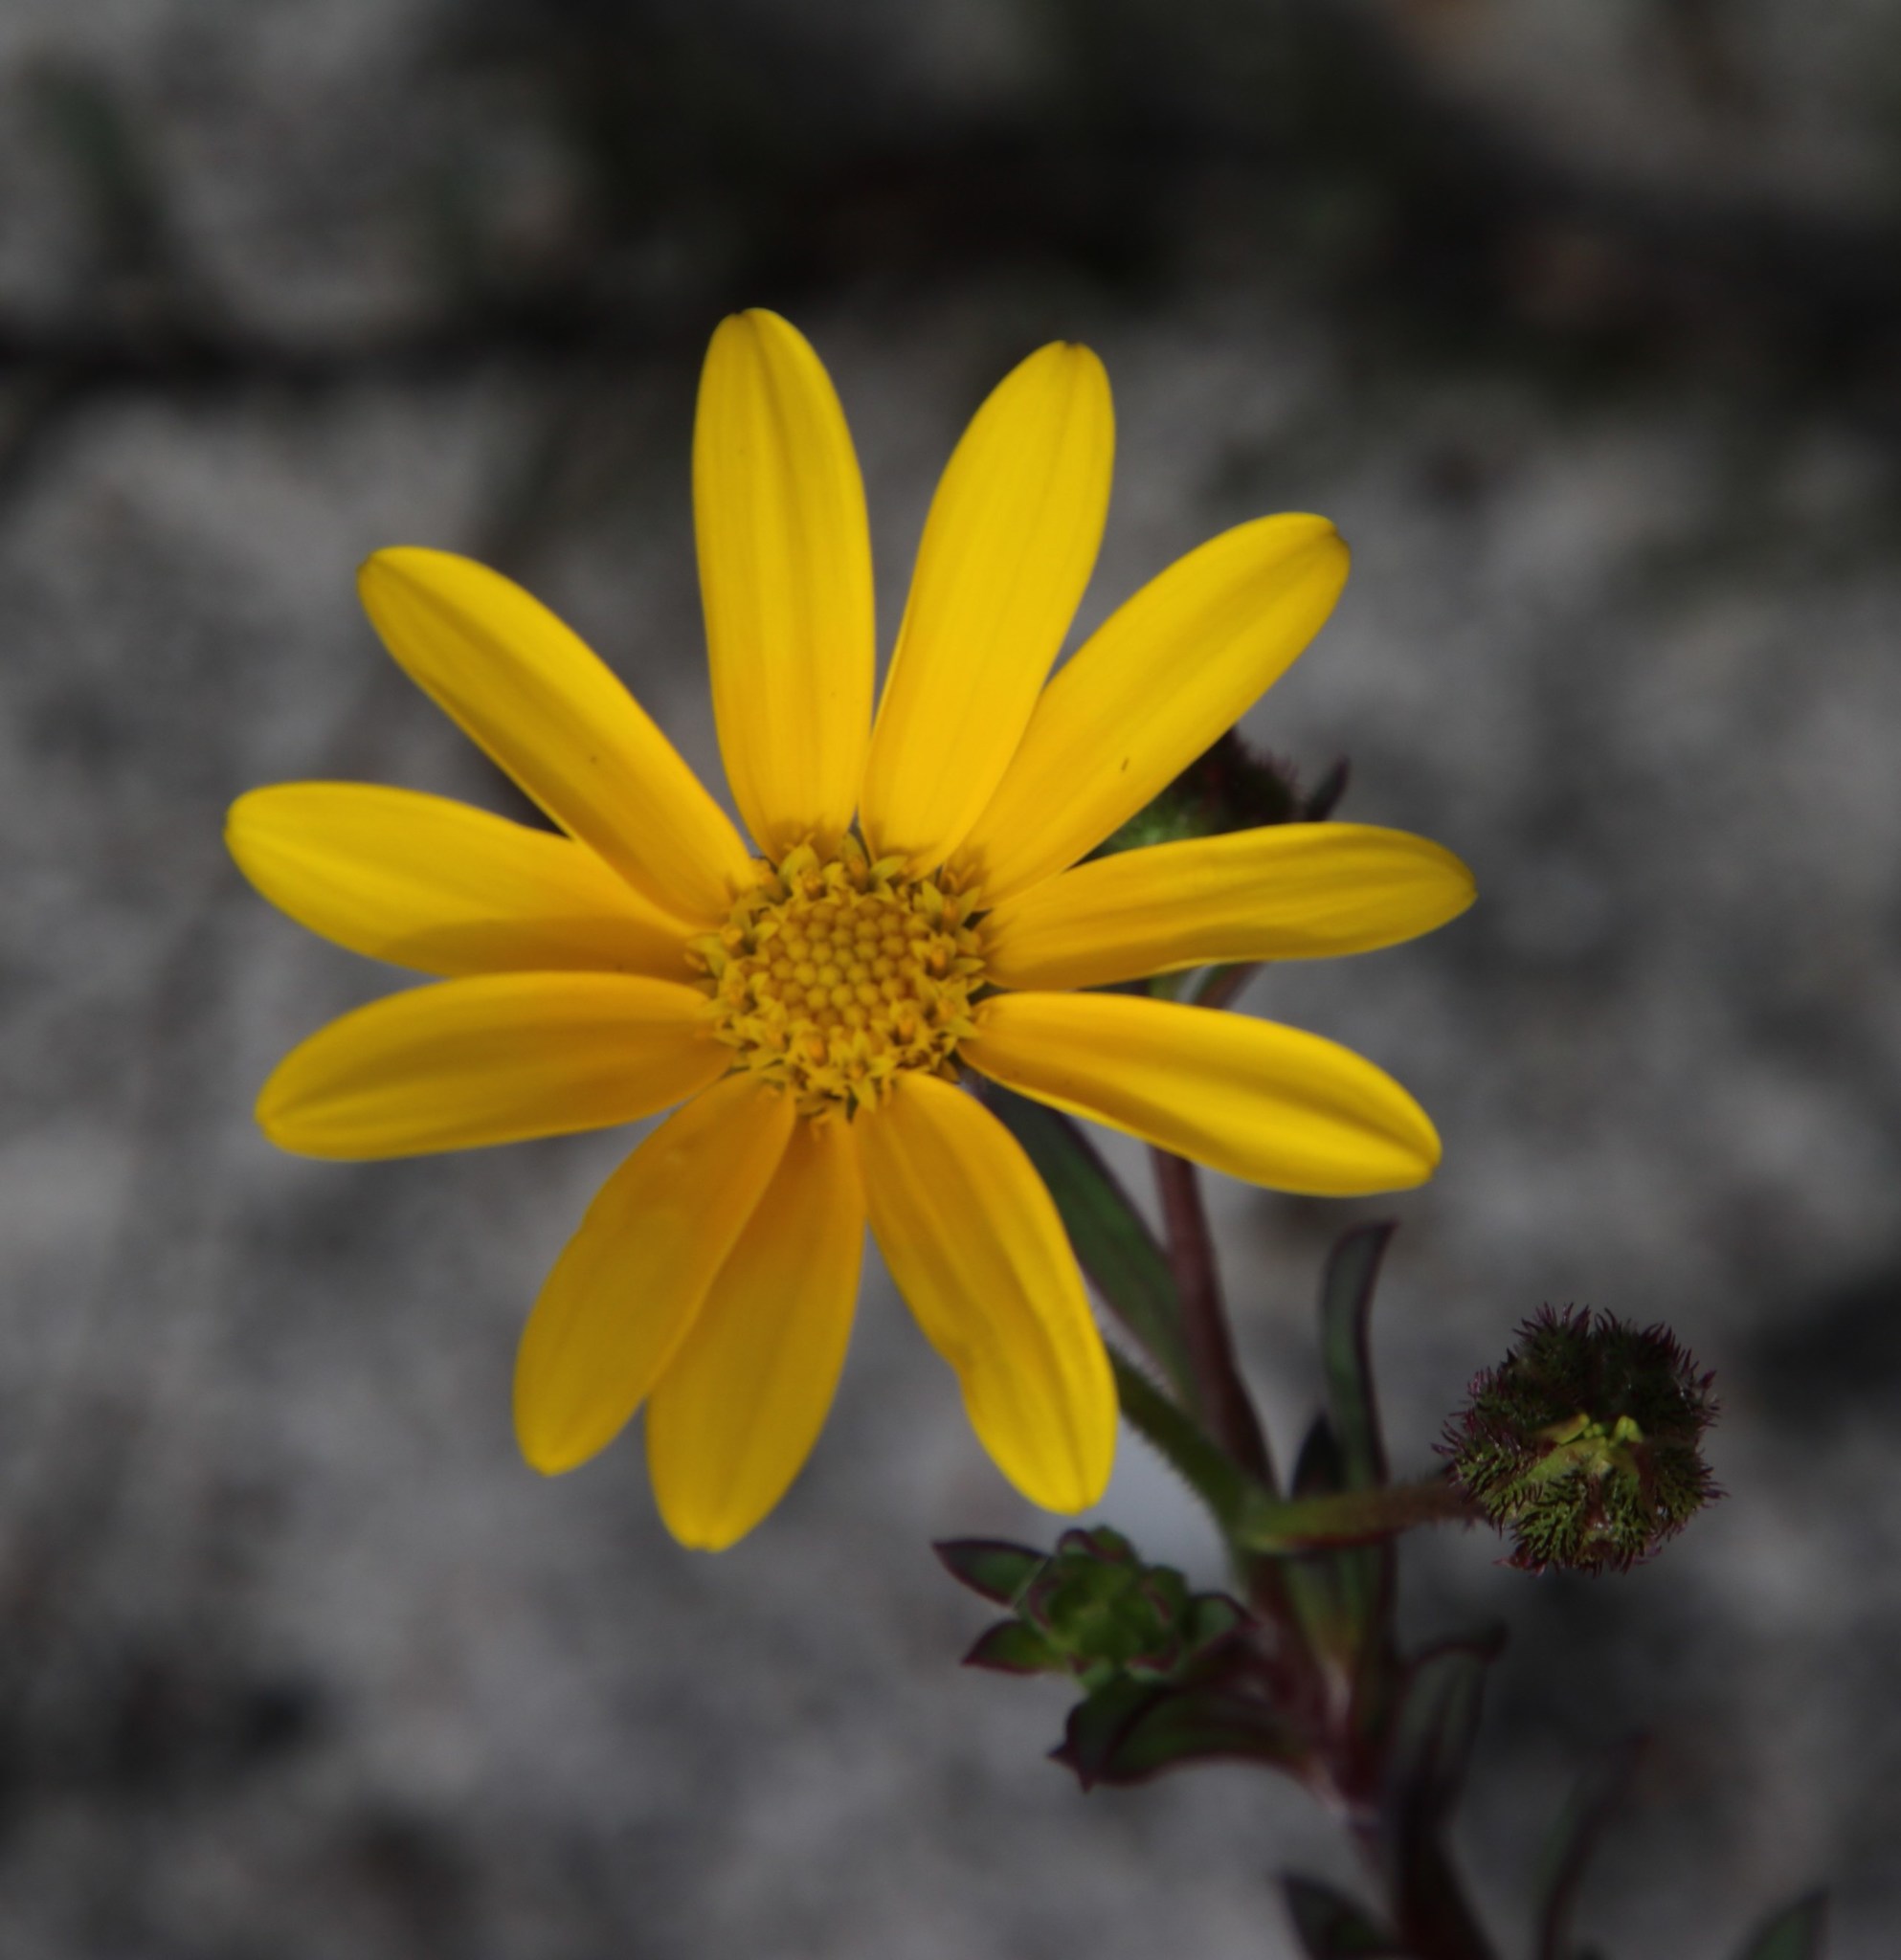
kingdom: Plantae
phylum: Tracheophyta
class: Magnoliopsida
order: Asterales
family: Asteraceae
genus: Osteospermum
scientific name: Osteospermum polygaloides
